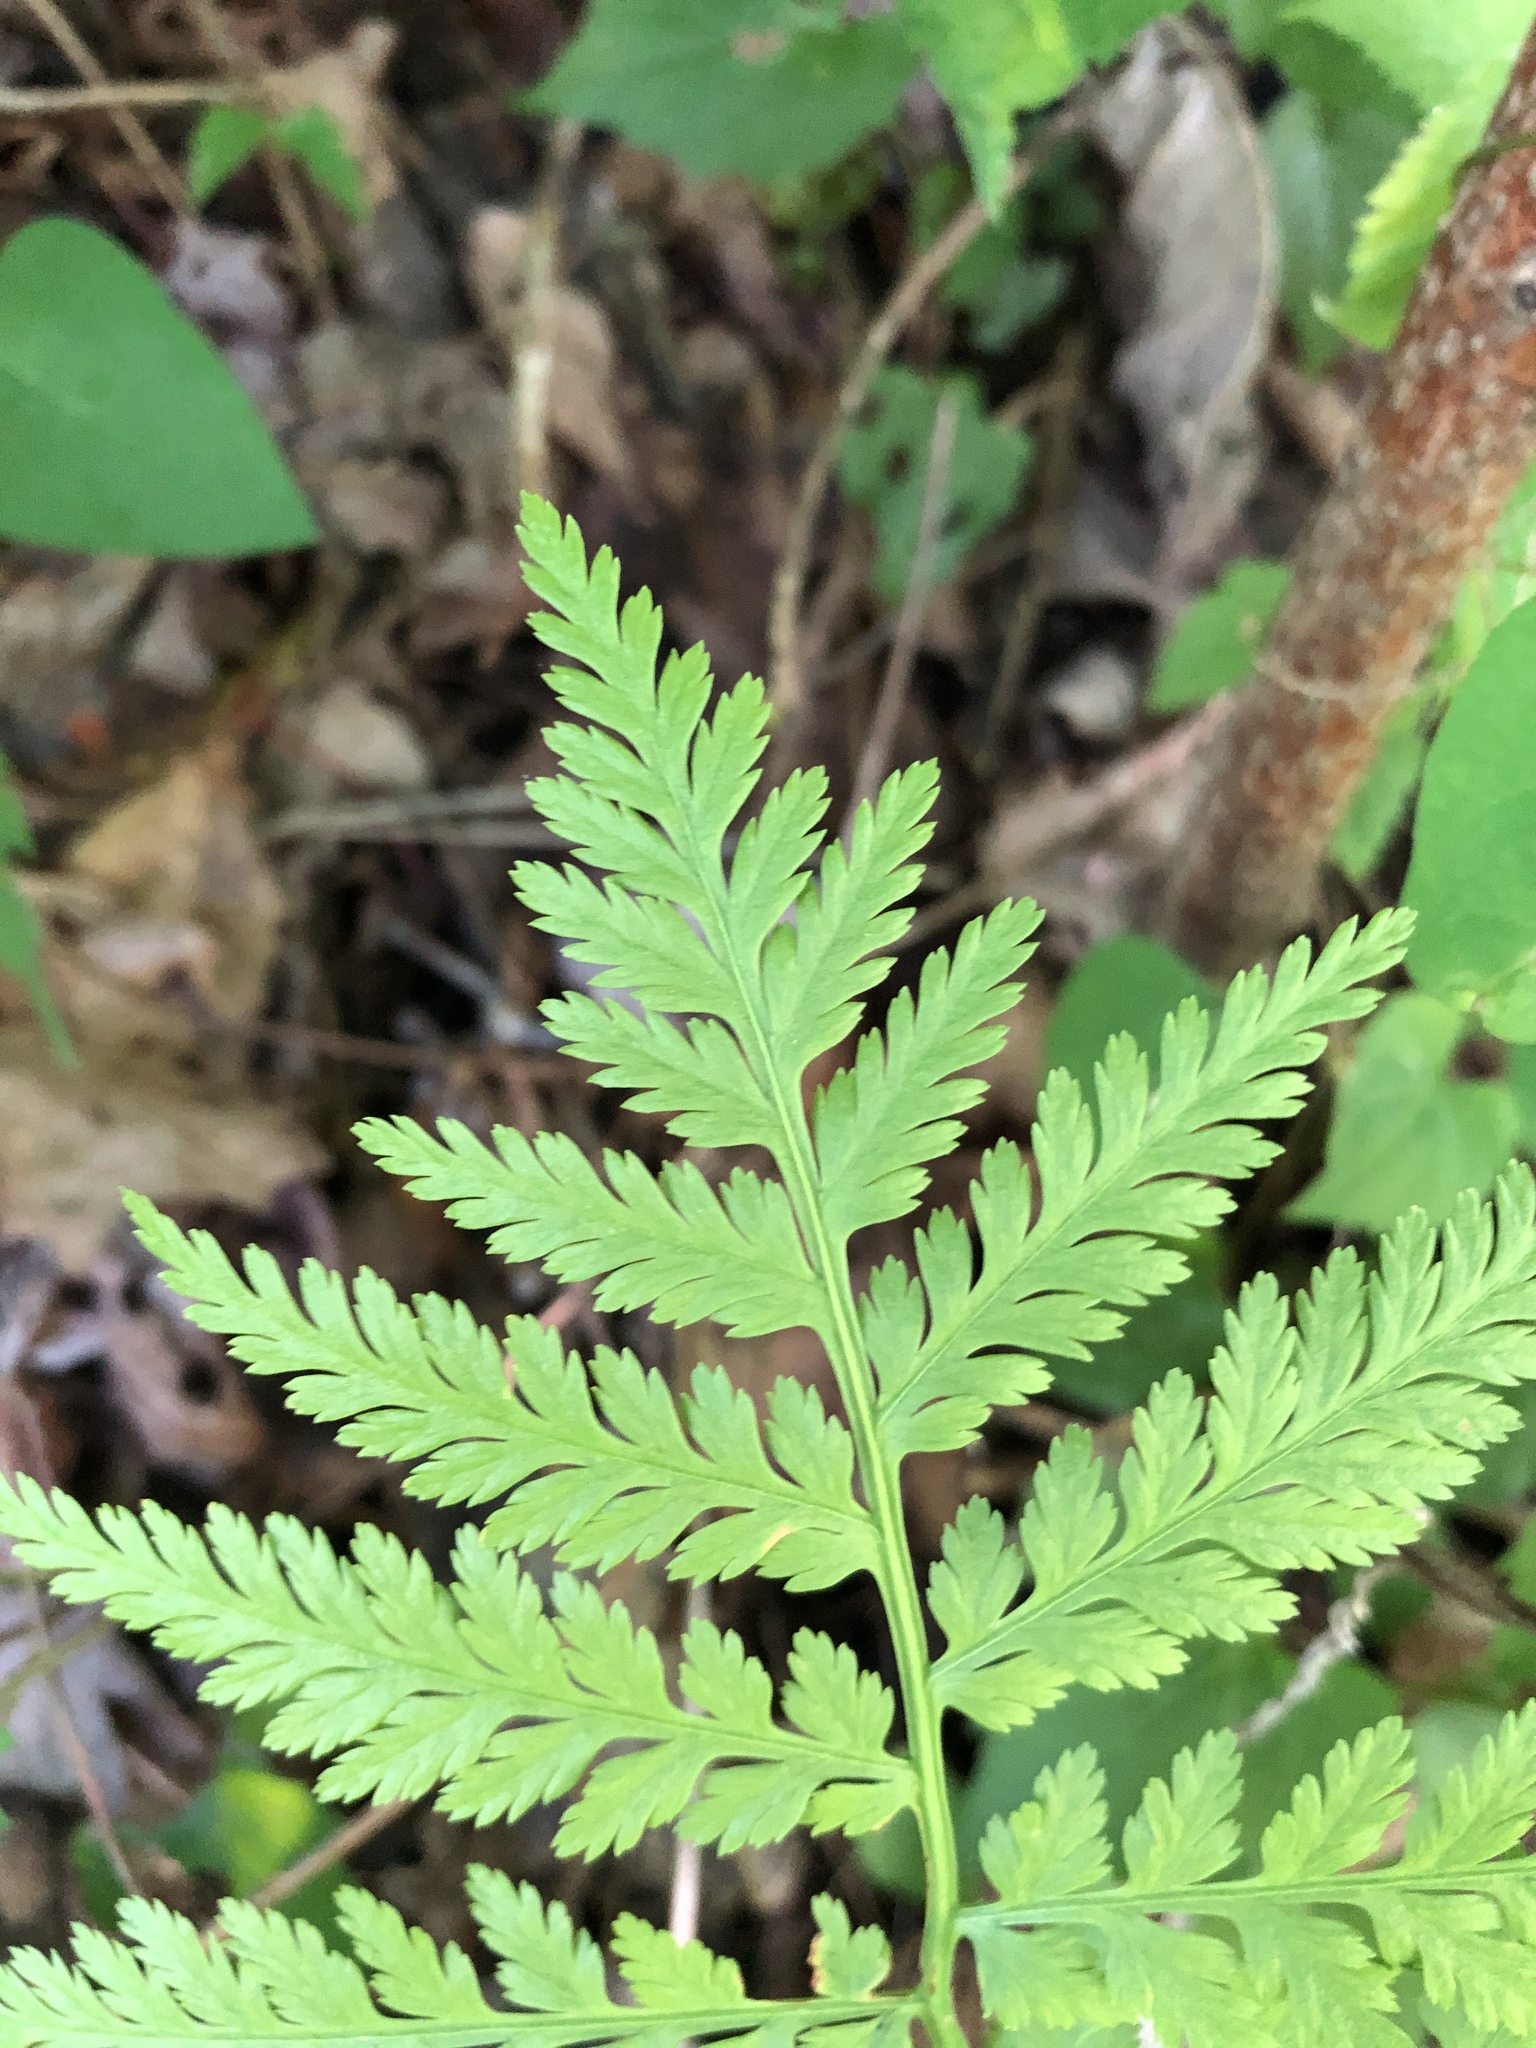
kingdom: Plantae
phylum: Tracheophyta
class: Polypodiopsida
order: Ophioglossales
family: Ophioglossaceae
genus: Botrypus
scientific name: Botrypus virginianus
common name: Common grapefern
